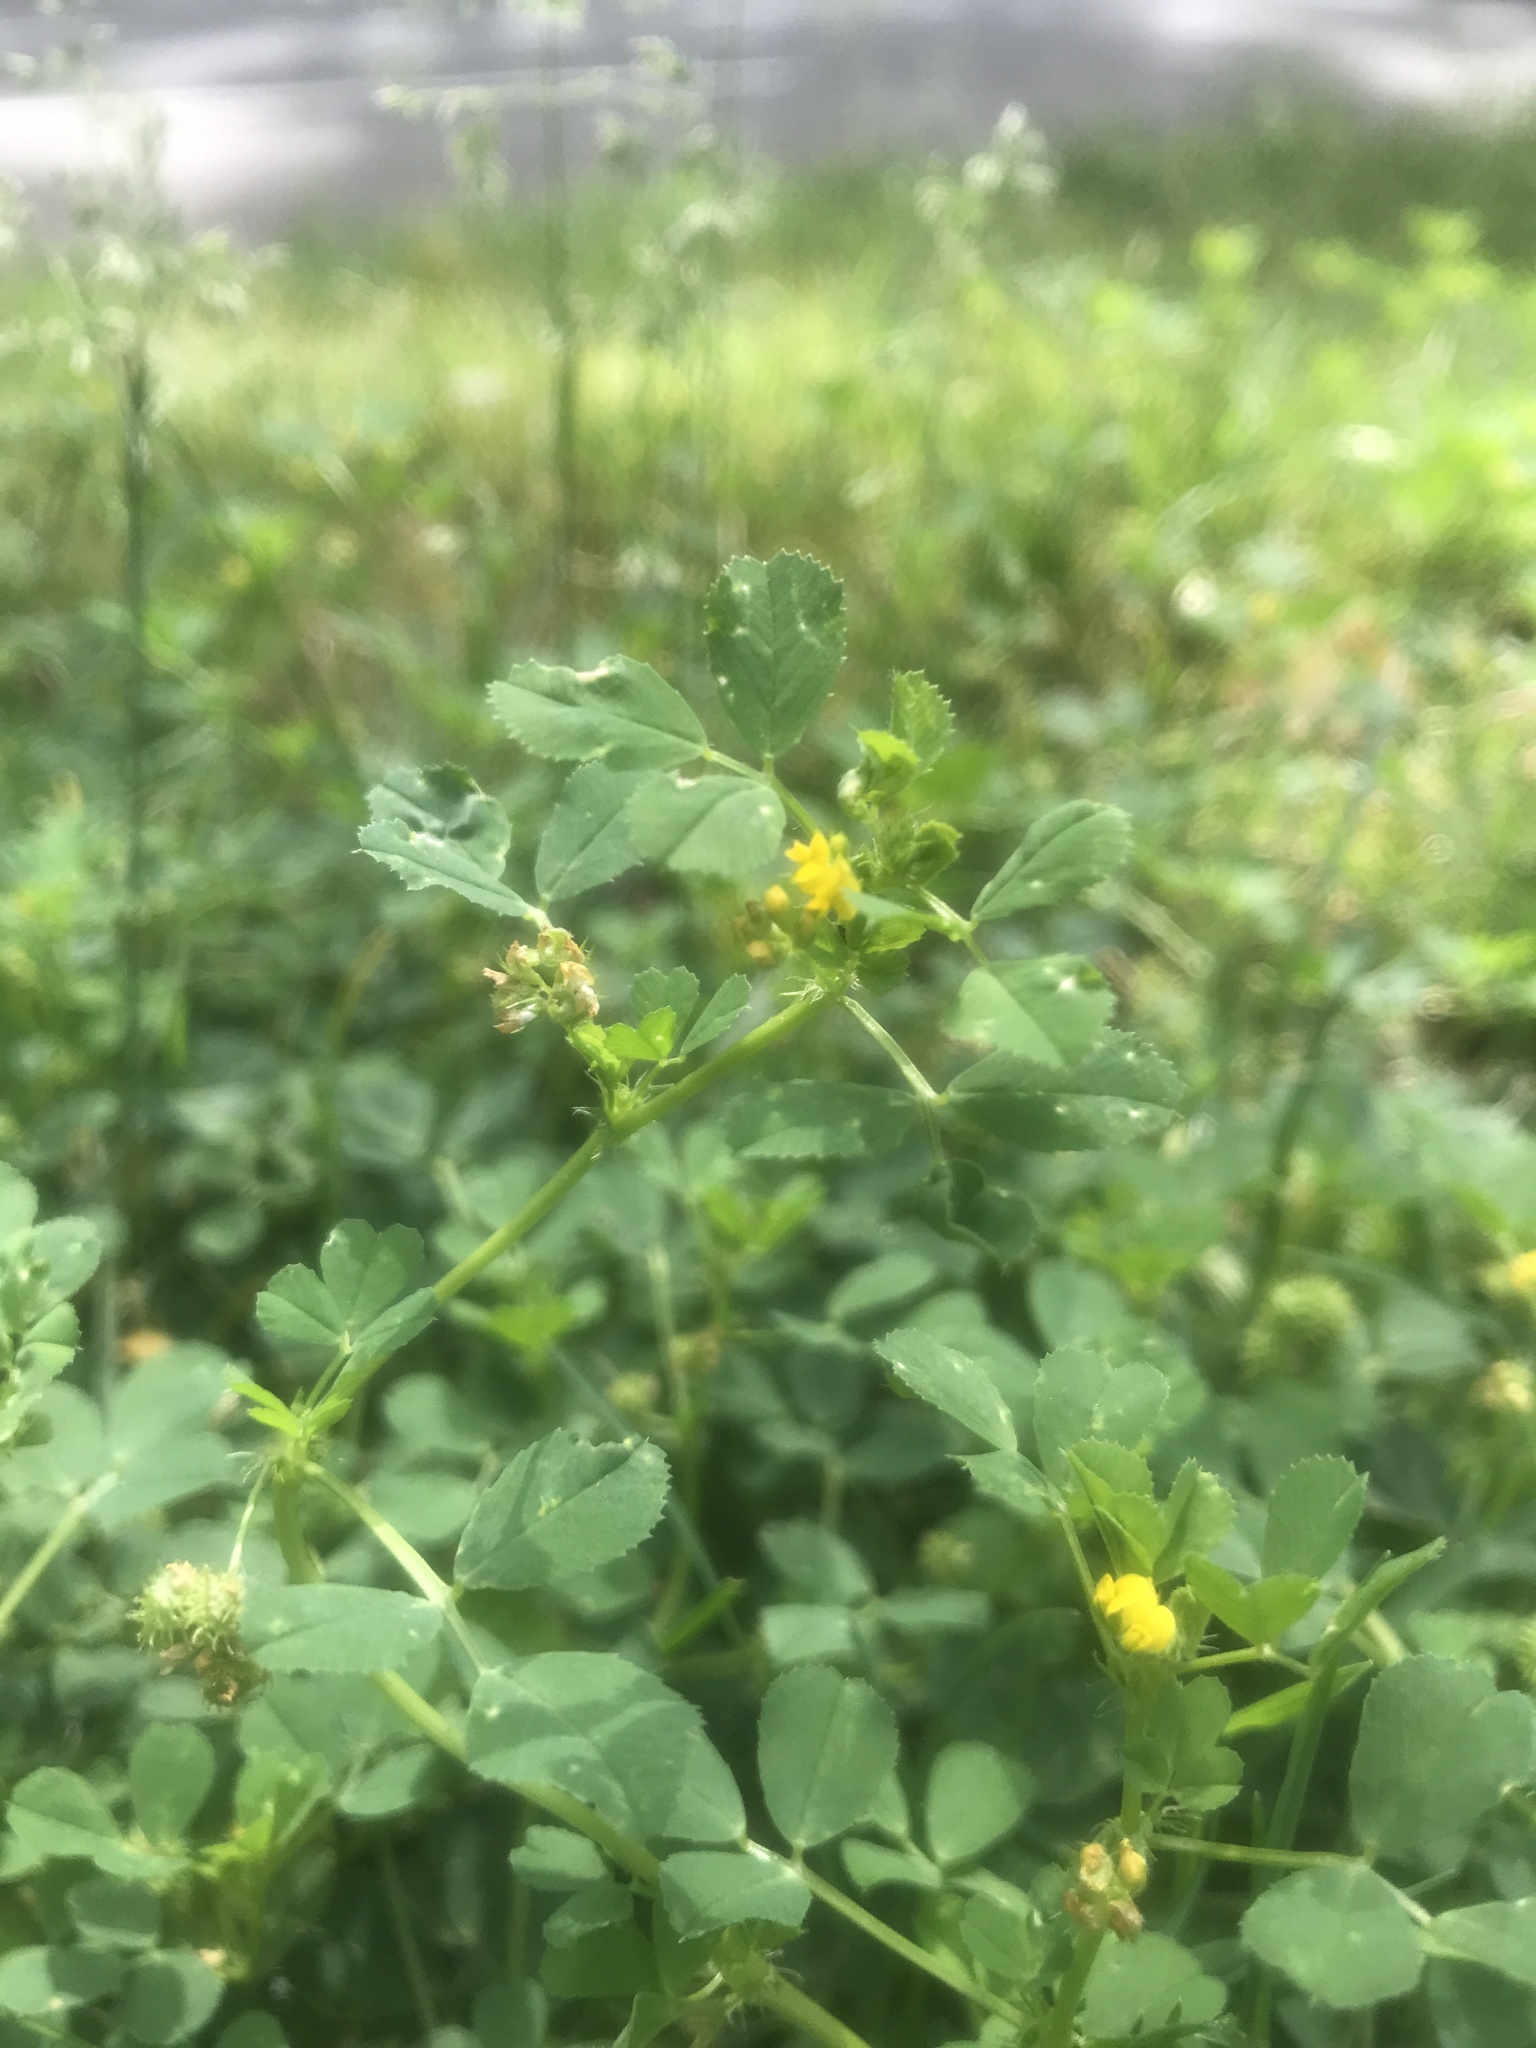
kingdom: Plantae
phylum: Tracheophyta
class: Magnoliopsida
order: Fabales
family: Fabaceae
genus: Medicago
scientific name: Medicago polymorpha
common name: Burclover
